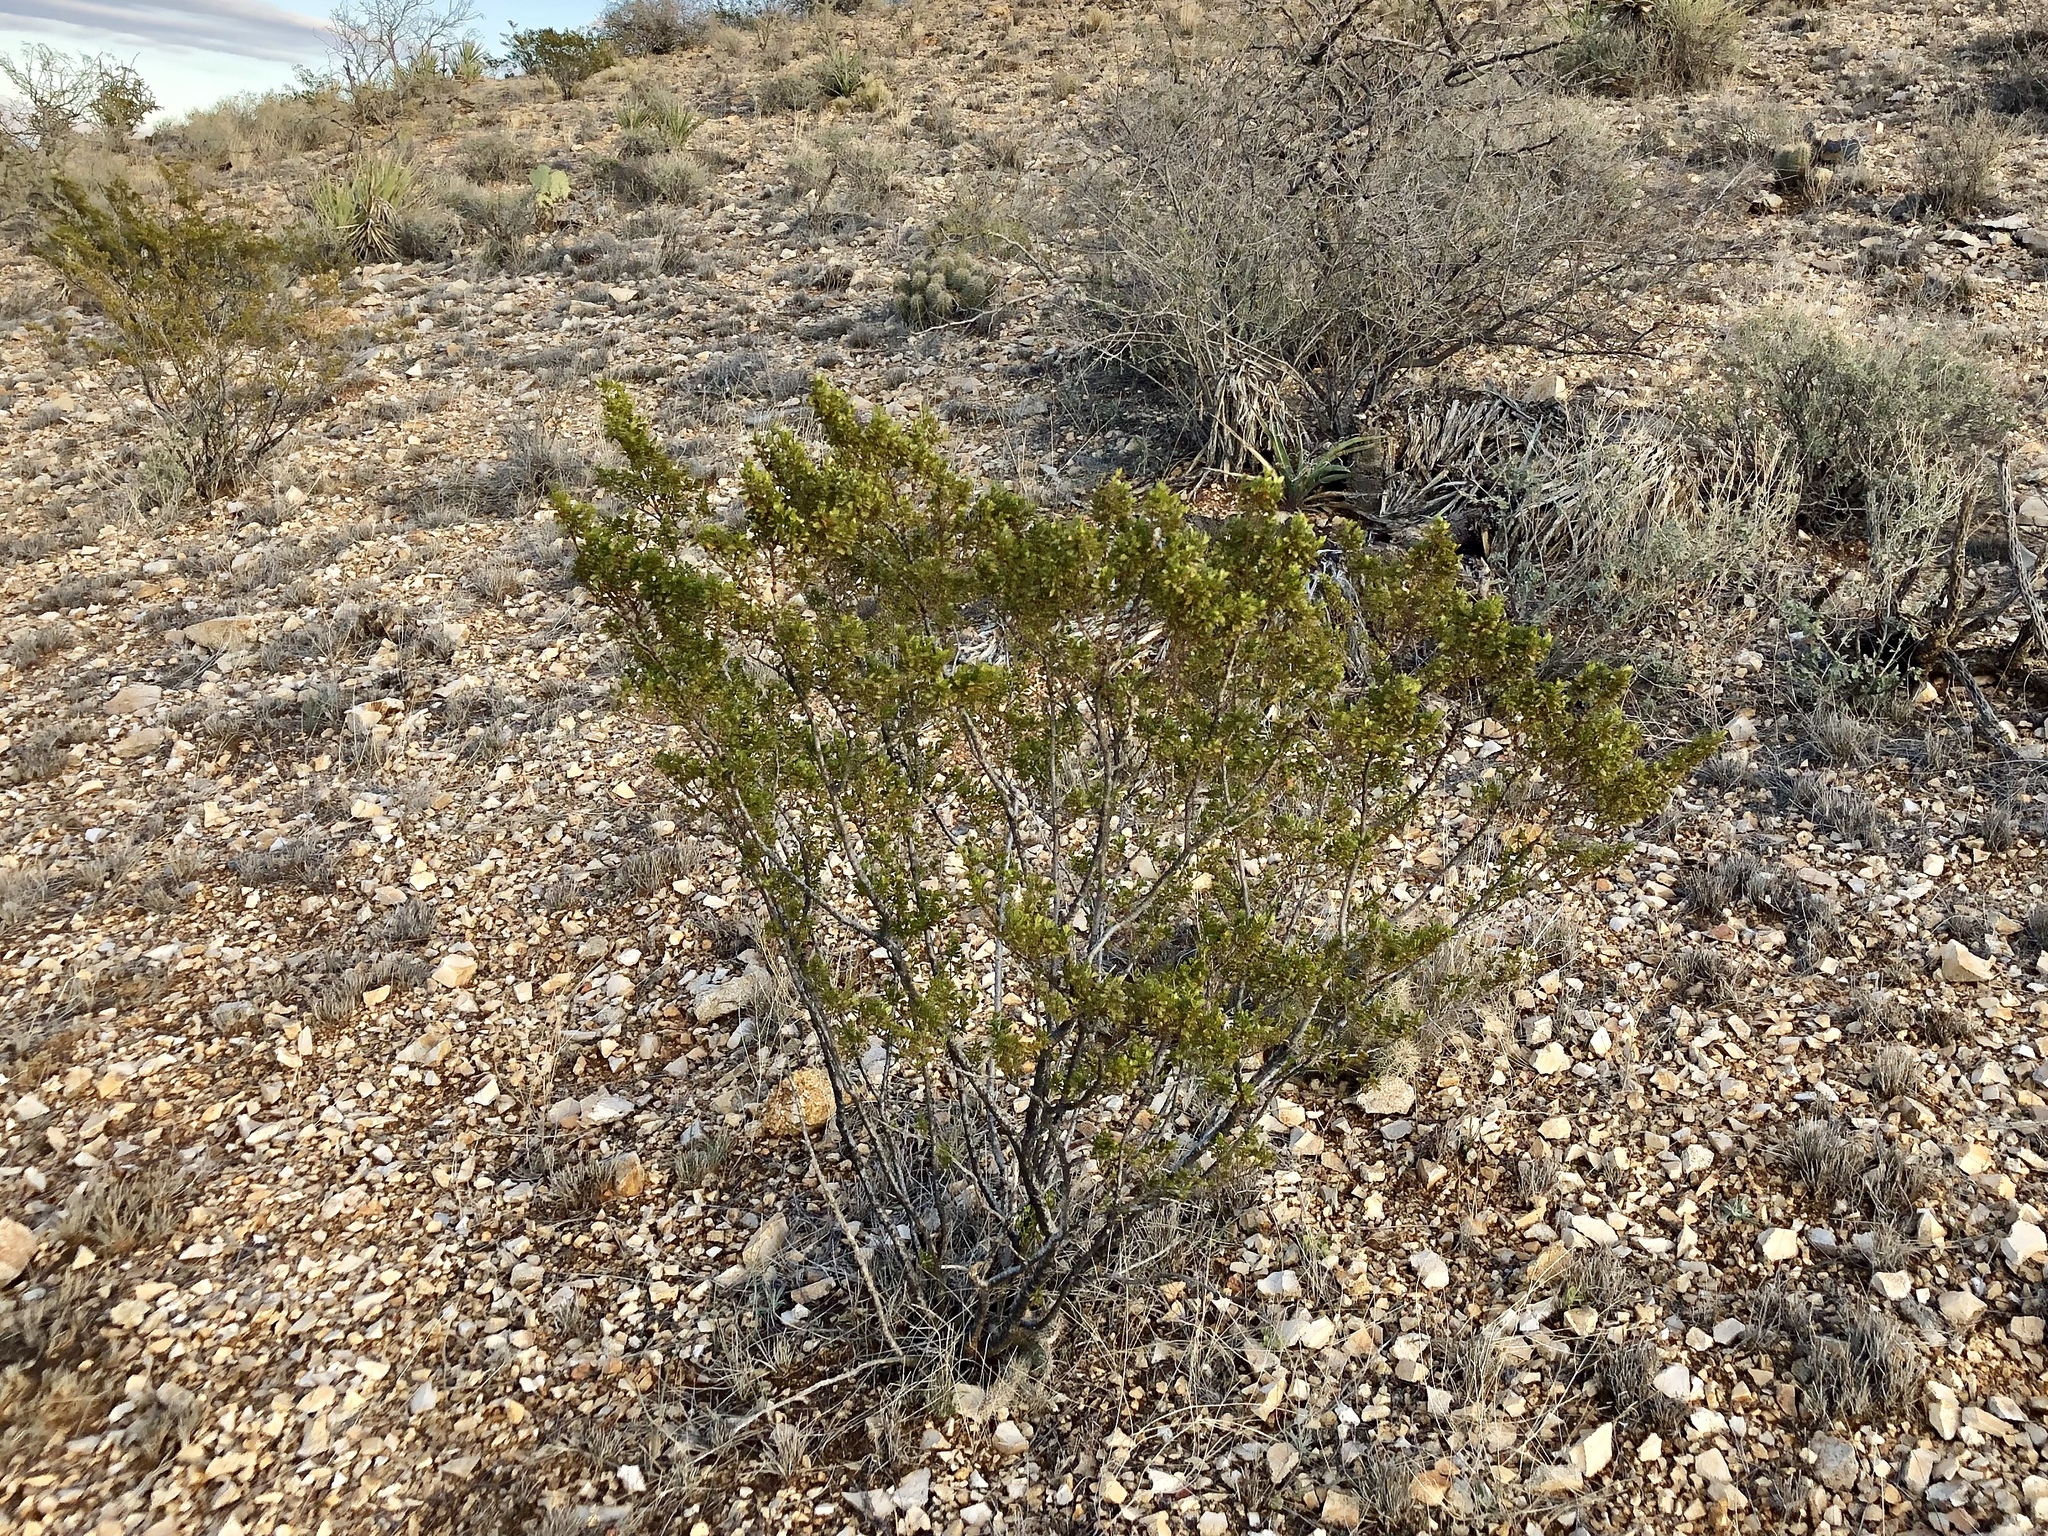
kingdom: Plantae
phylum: Tracheophyta
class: Magnoliopsida
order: Zygophyllales
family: Zygophyllaceae
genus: Larrea
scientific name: Larrea tridentata
